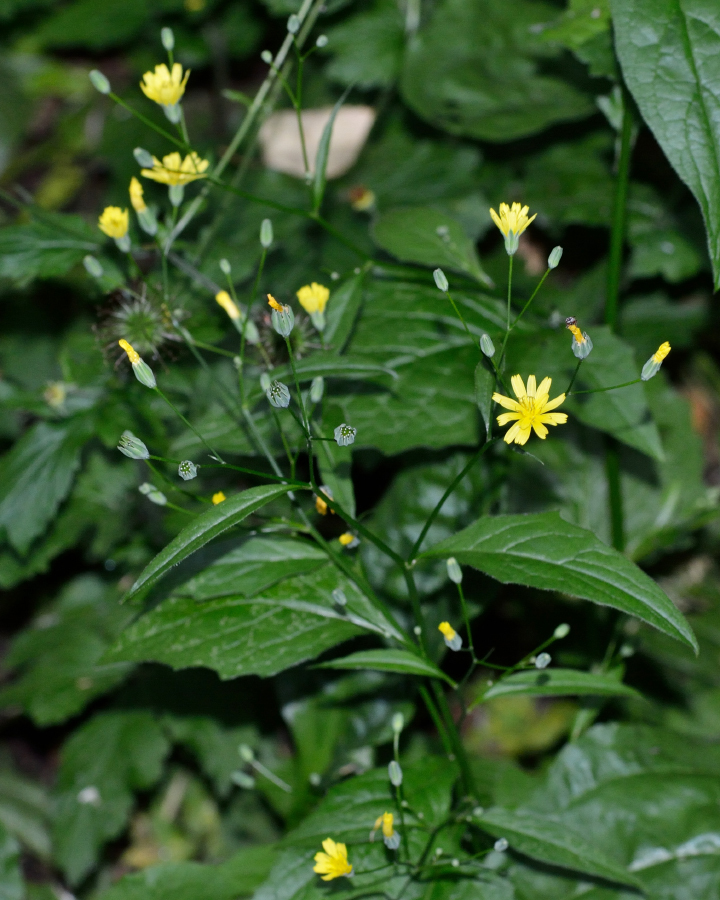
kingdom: Plantae
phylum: Tracheophyta
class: Magnoliopsida
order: Asterales
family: Asteraceae
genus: Lapsana
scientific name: Lapsana communis
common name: Nipplewort
